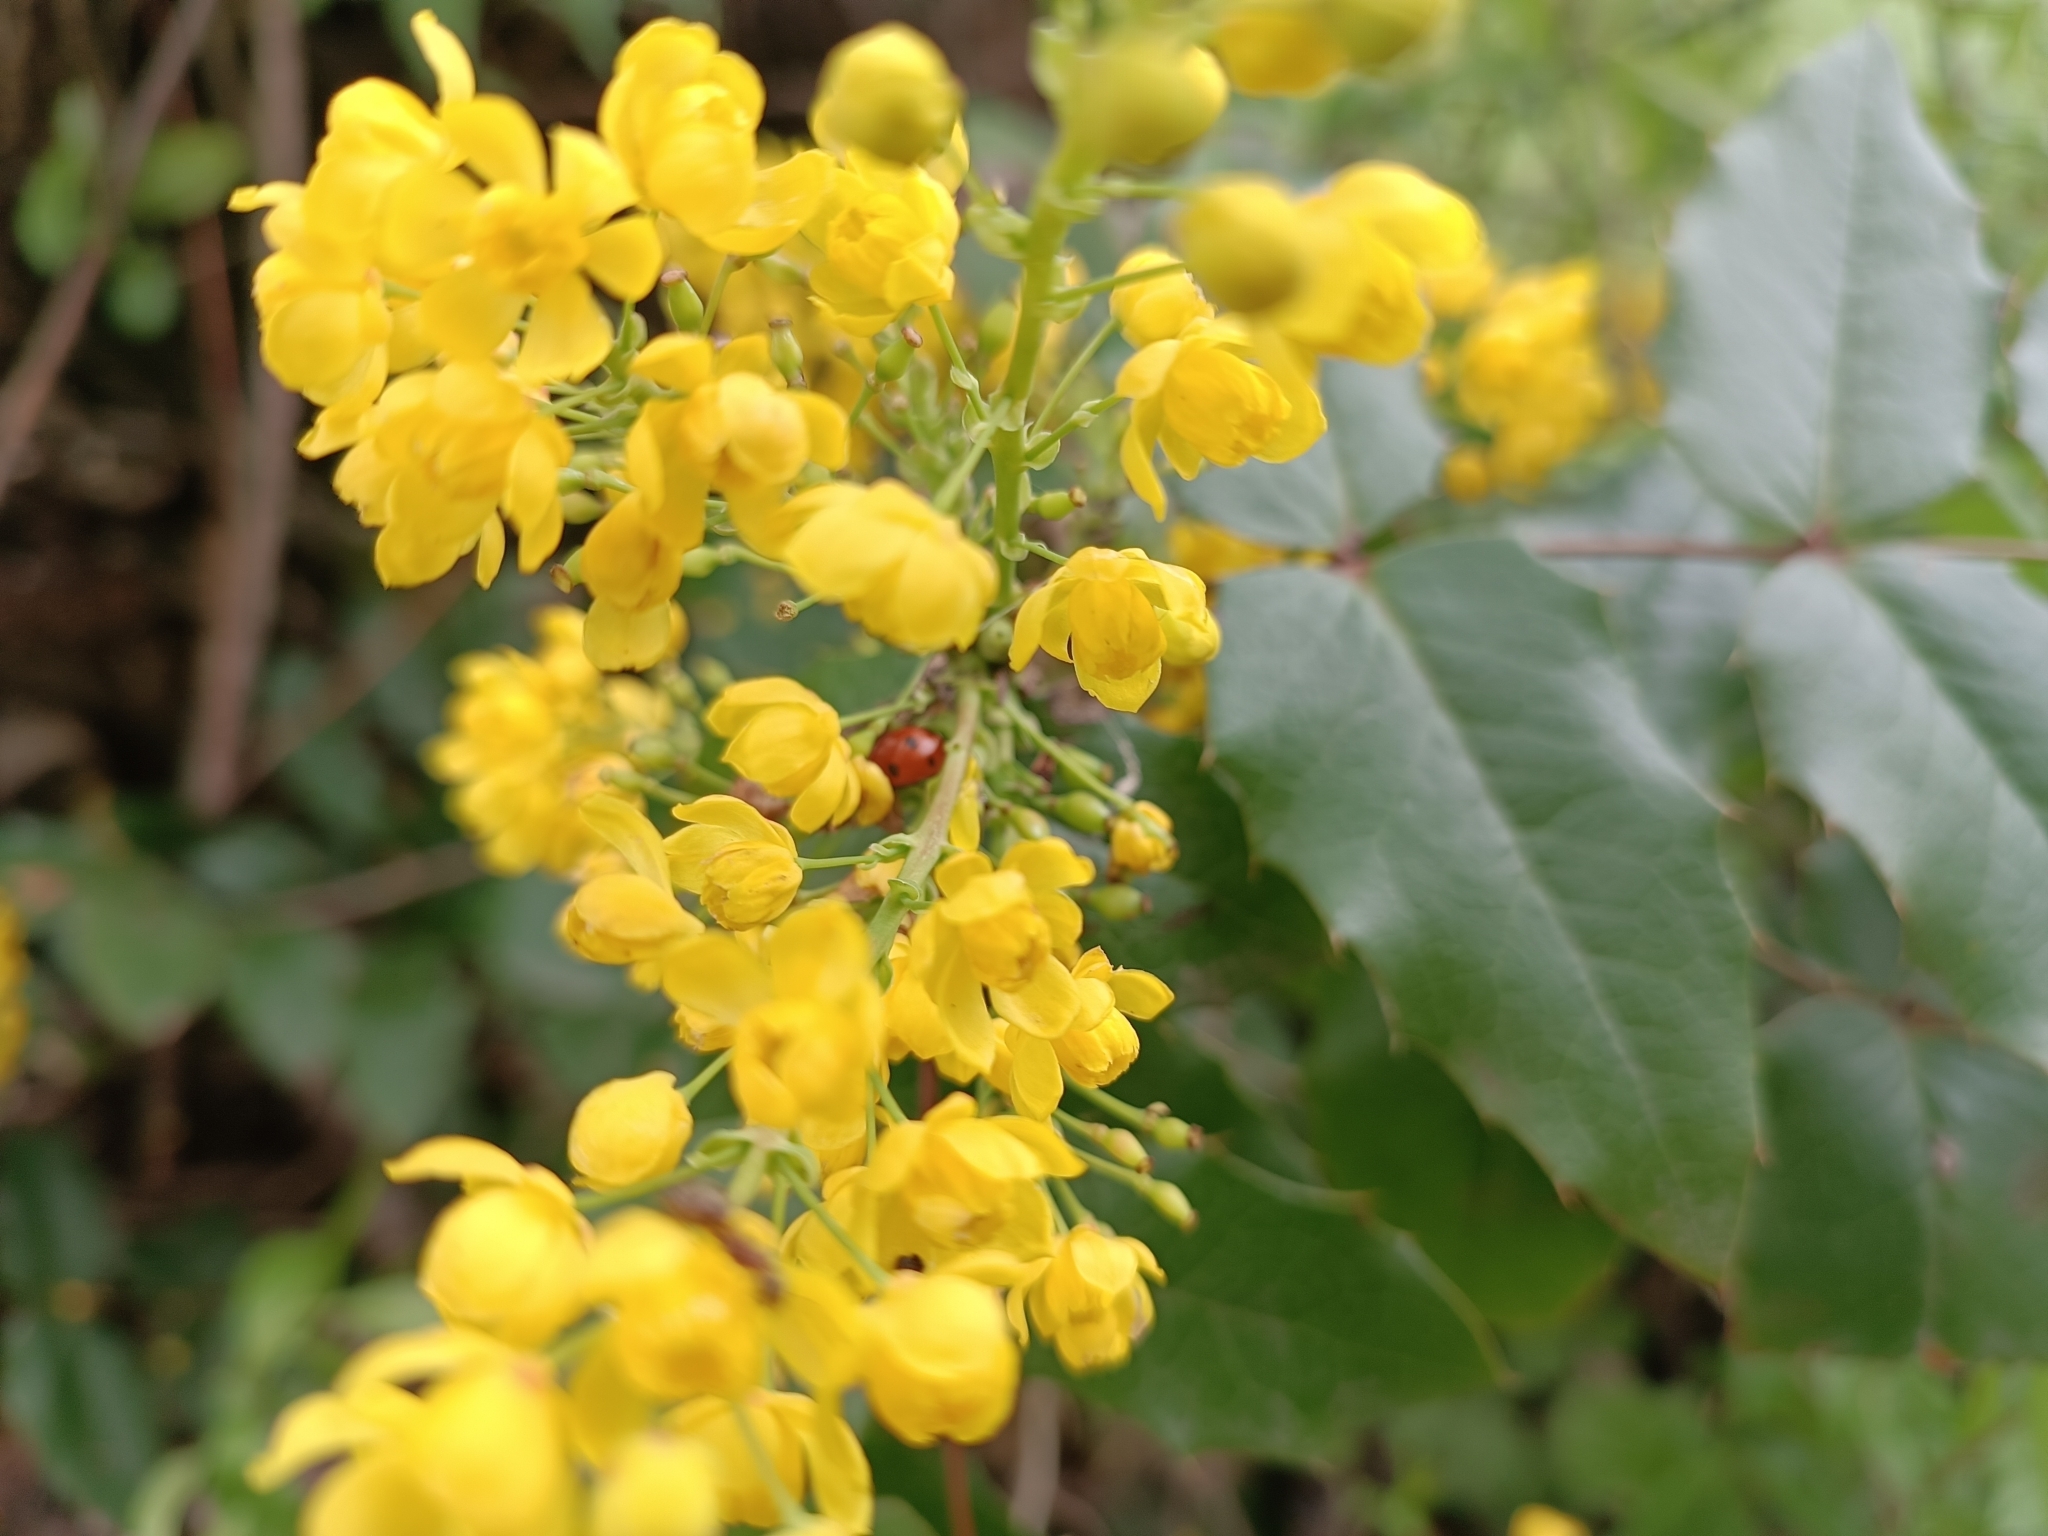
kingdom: Plantae
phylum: Tracheophyta
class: Magnoliopsida
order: Ranunculales
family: Berberidaceae
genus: Mahonia
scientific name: Mahonia aquifolium
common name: Oregon-grape
